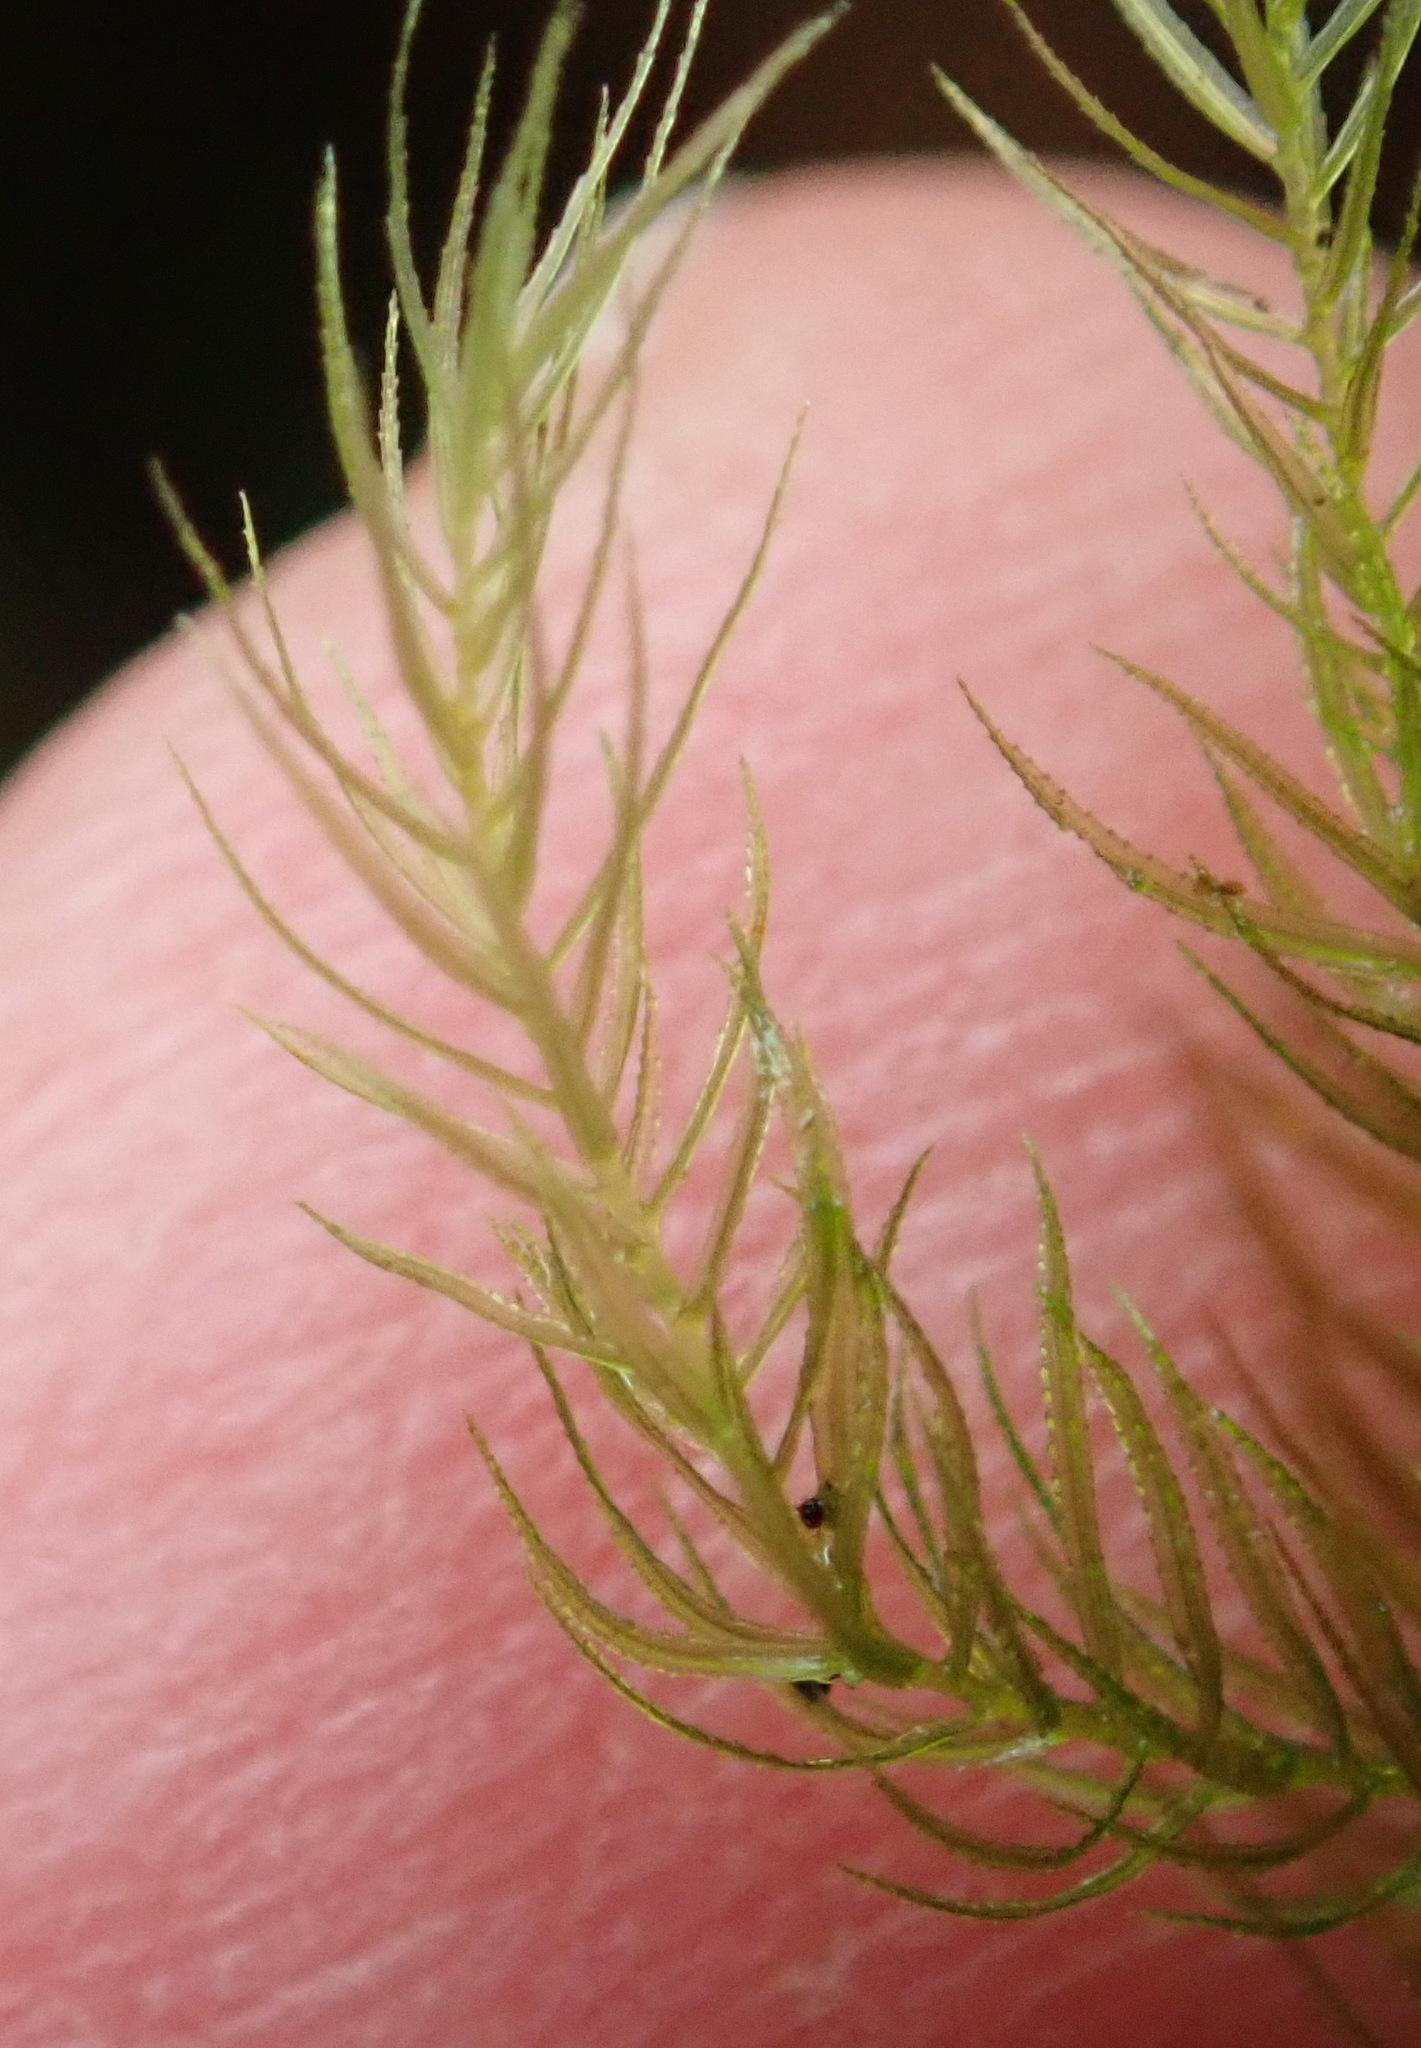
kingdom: Plantae
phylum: Bryophyta
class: Bryopsida
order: Rhizogoniales
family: Calomniaceae
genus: Pyrrhobryum
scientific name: Pyrrhobryum spiniforme
